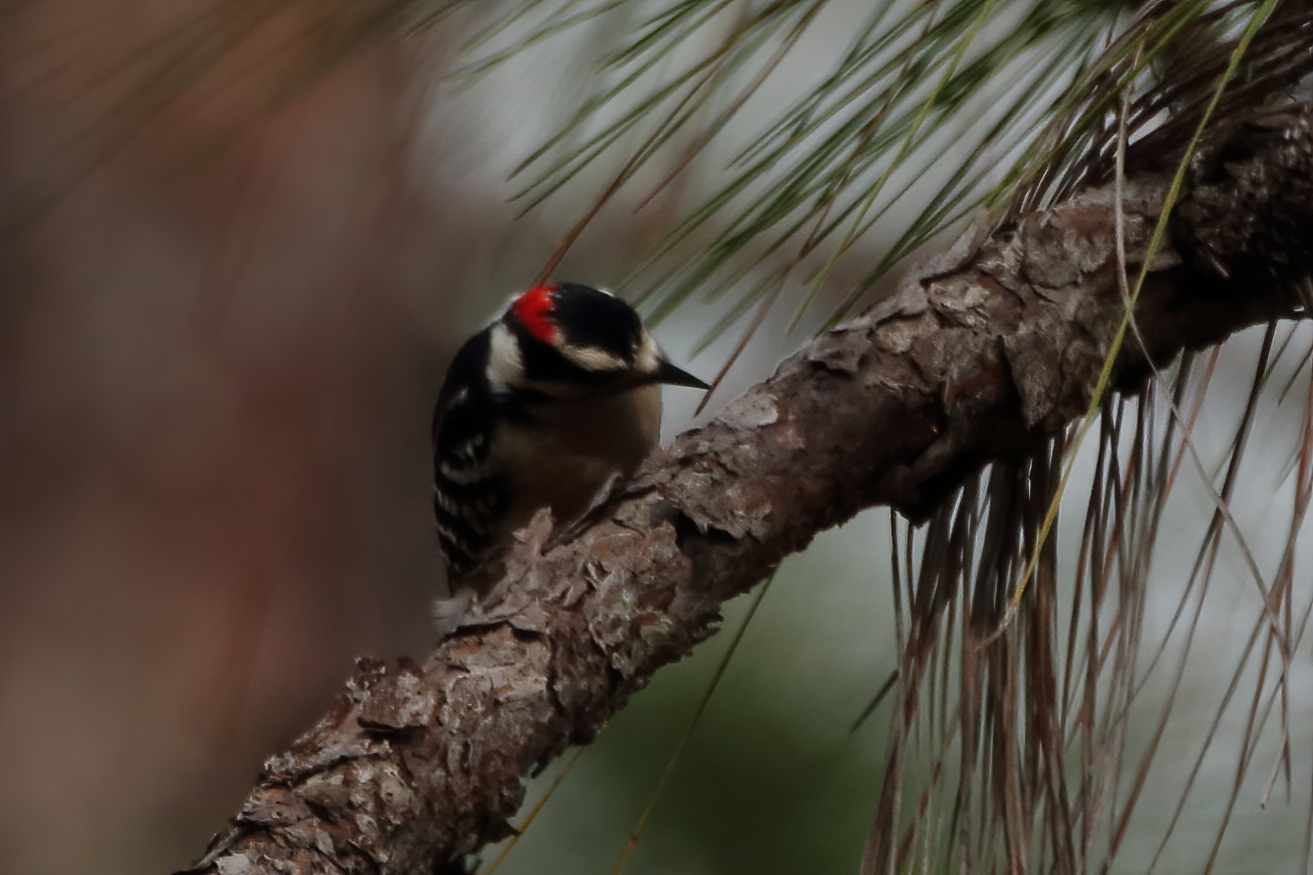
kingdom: Animalia
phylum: Chordata
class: Aves
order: Piciformes
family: Picidae
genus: Dryobates
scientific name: Dryobates pubescens
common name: Downy woodpecker
